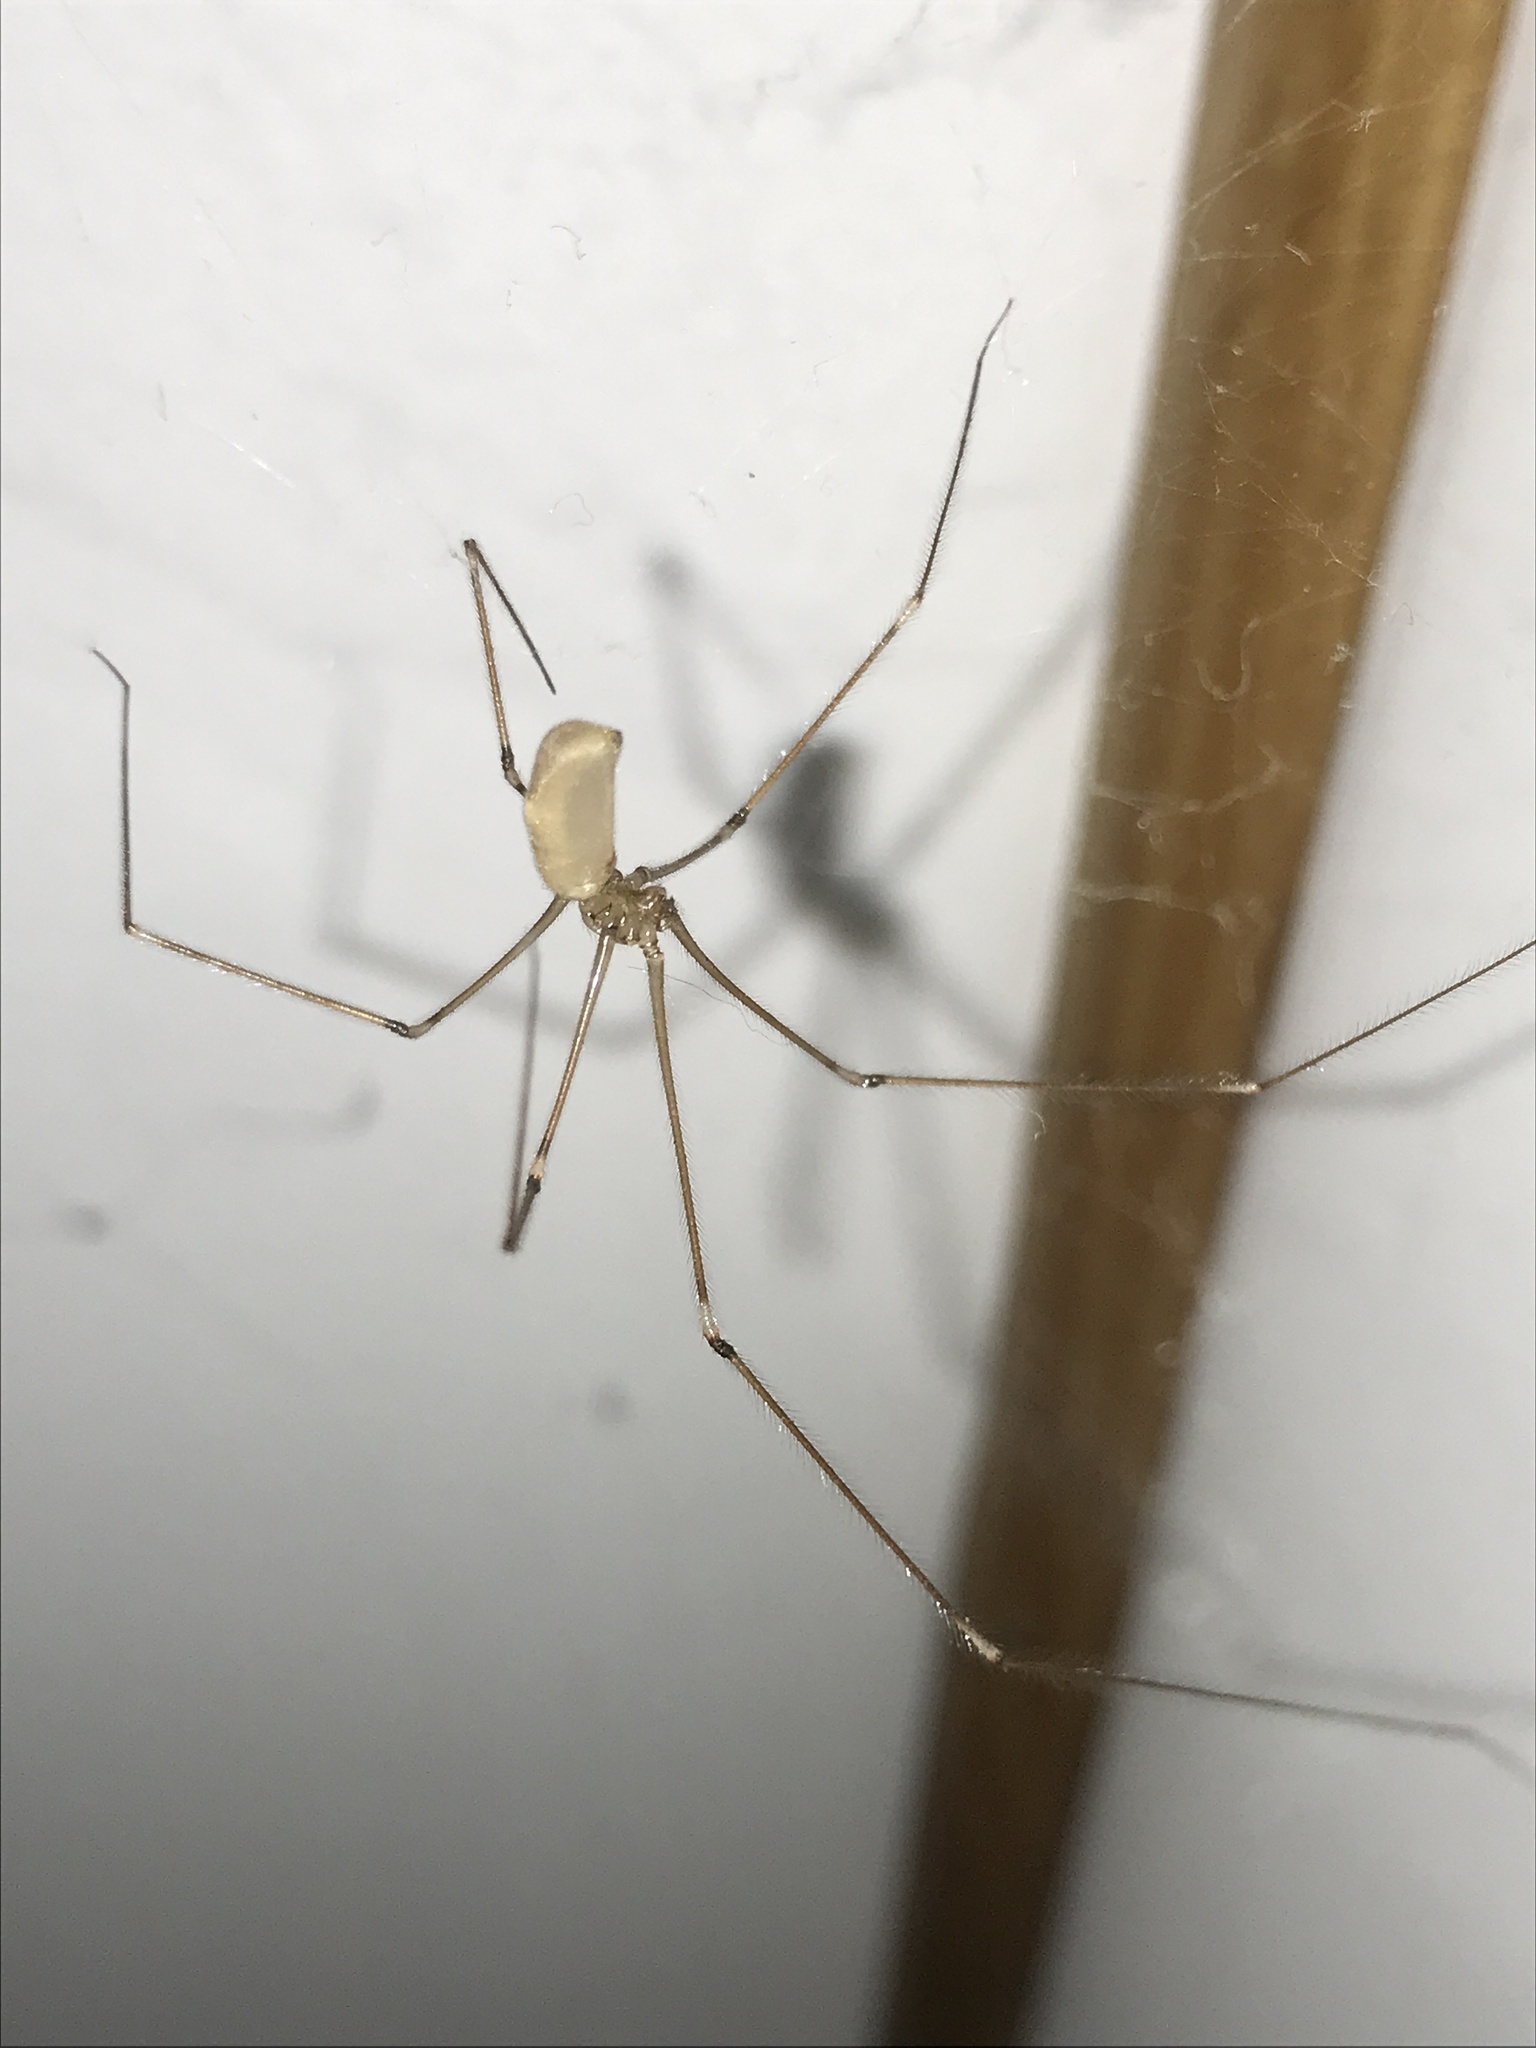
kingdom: Animalia
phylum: Arthropoda
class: Arachnida
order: Araneae
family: Pholcidae
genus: Pholcus
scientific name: Pholcus phalangioides
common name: Longbodied cellar spider
